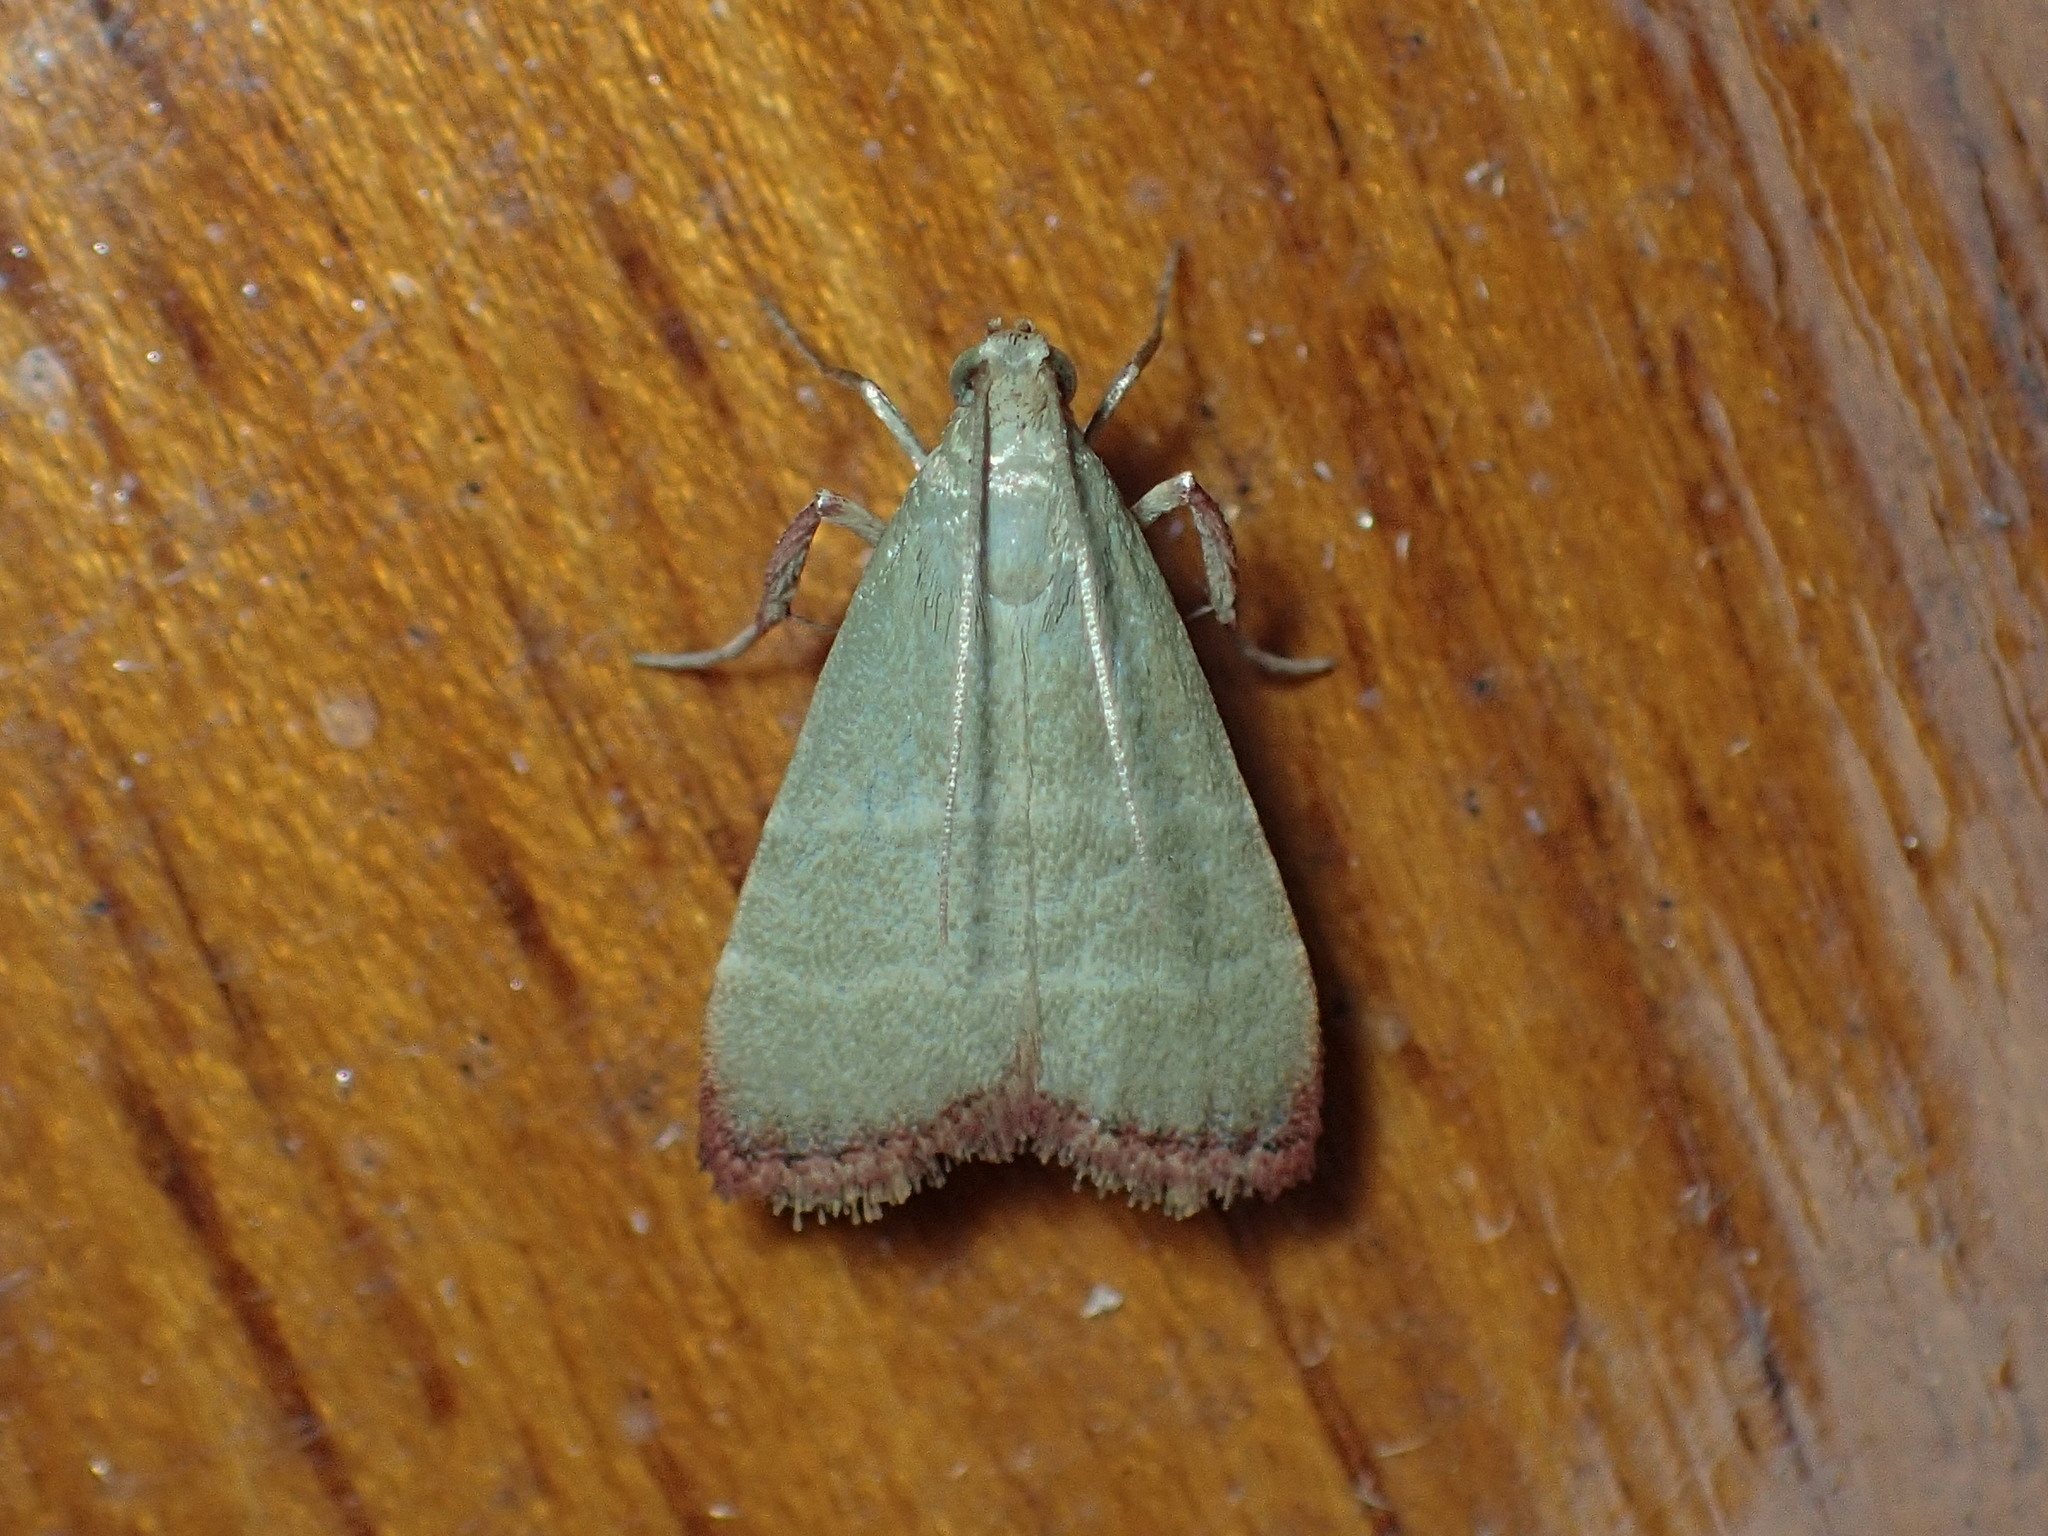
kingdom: Animalia
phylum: Arthropoda
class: Insecta
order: Lepidoptera
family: Pyralidae
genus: Arta
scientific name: Arta olivalis
